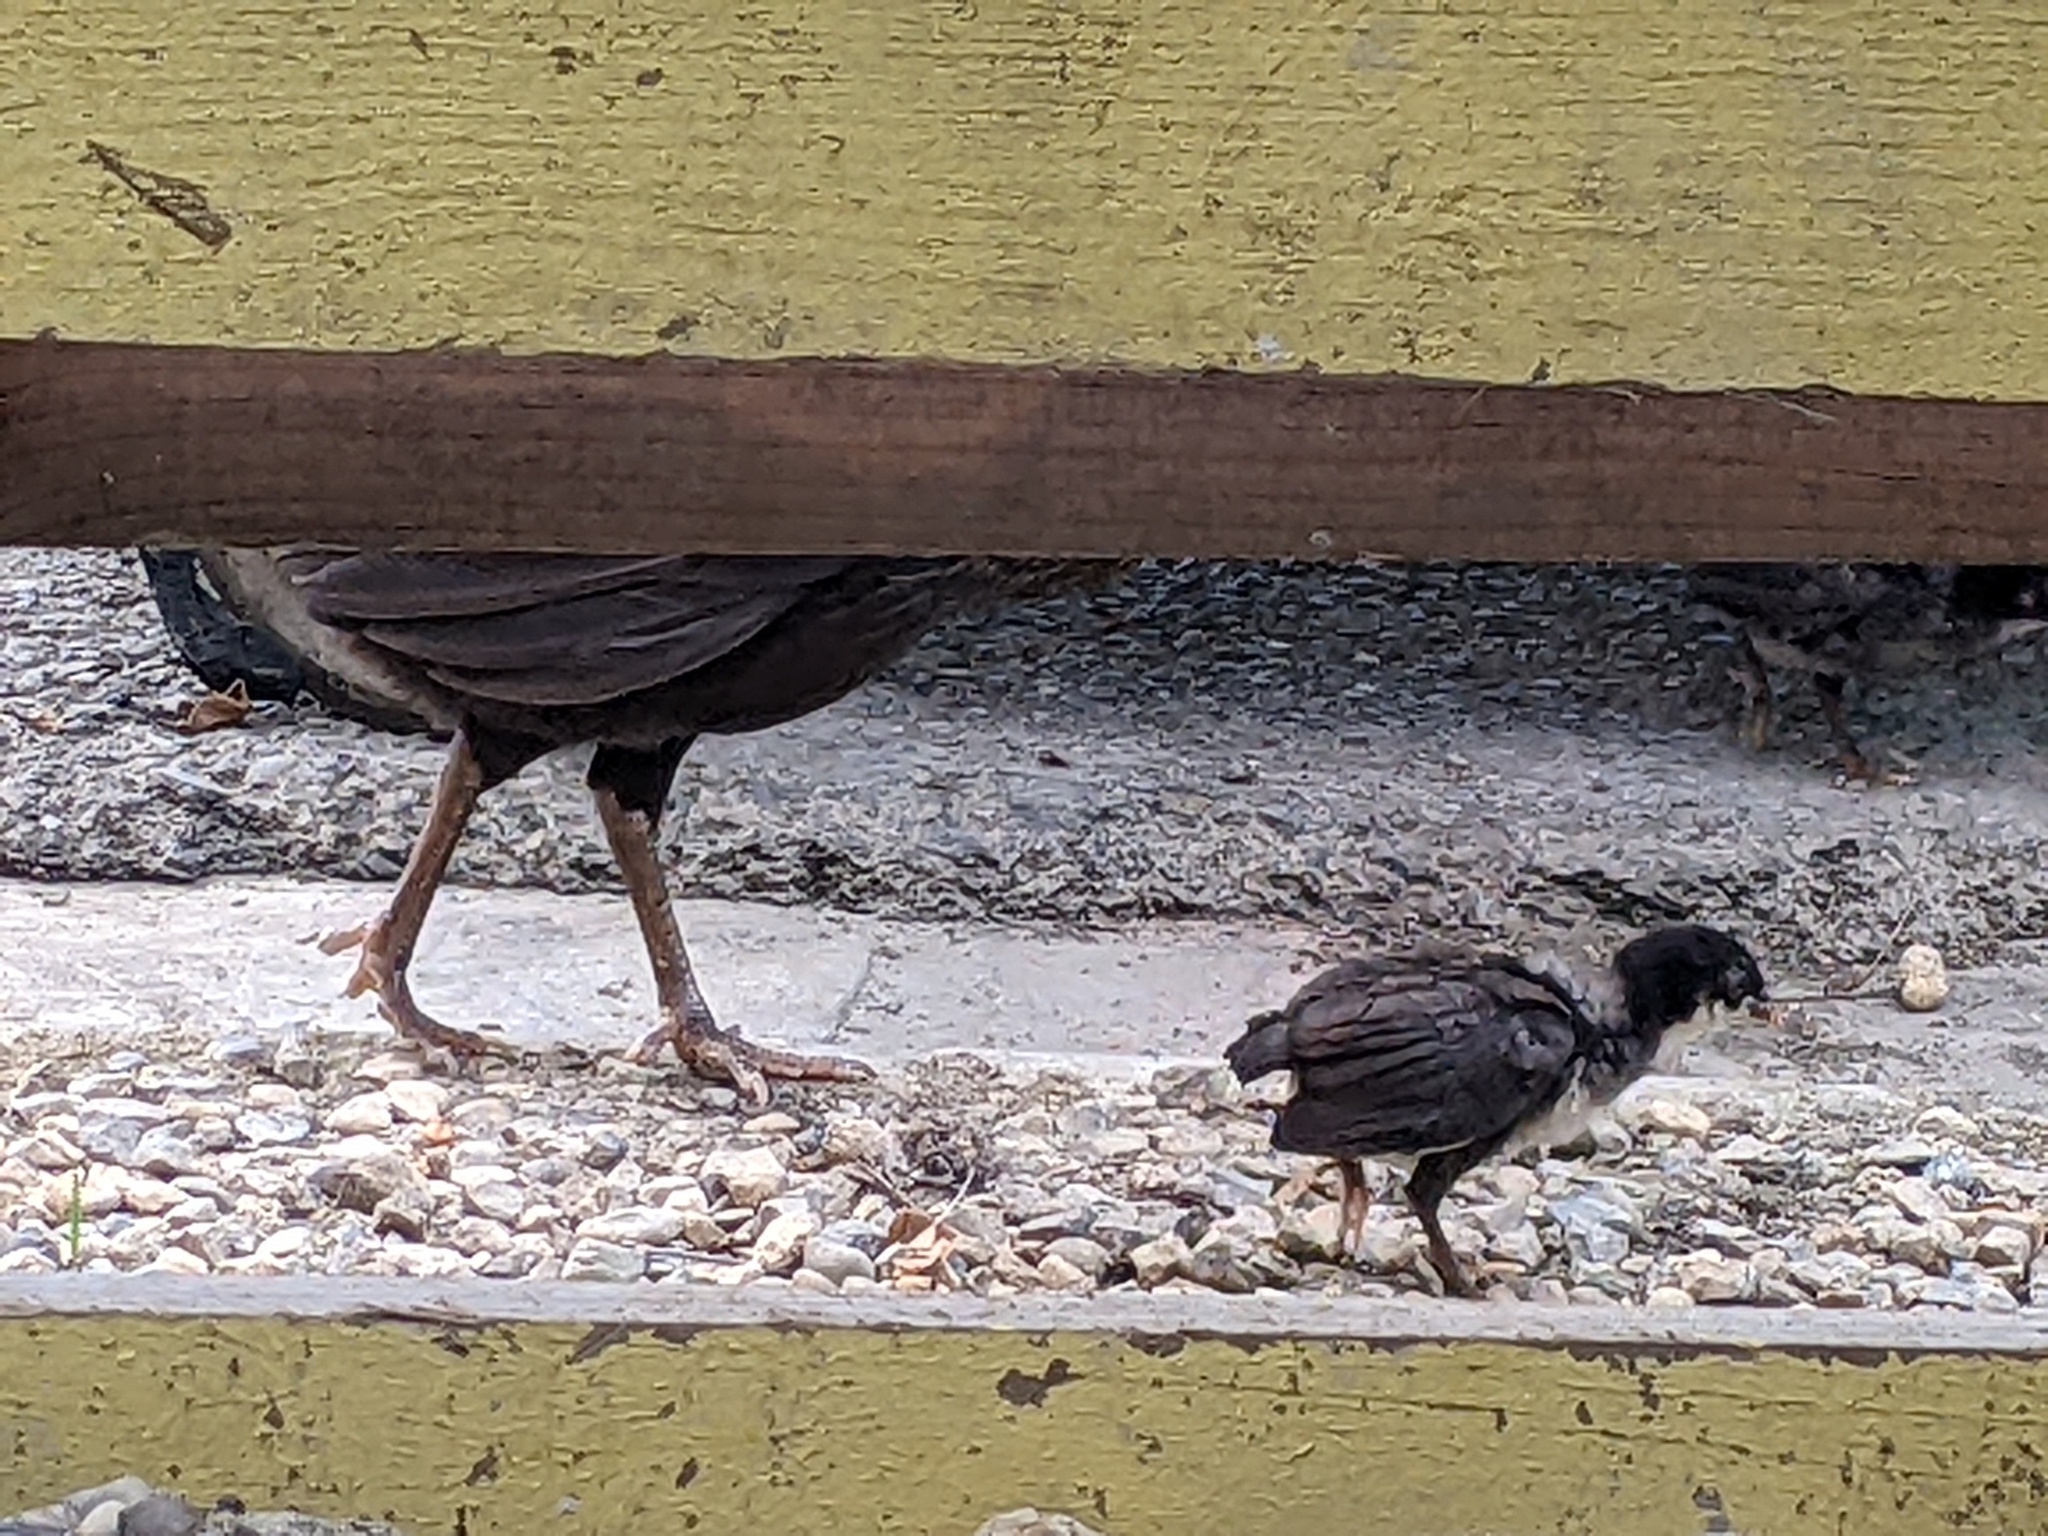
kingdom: Animalia
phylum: Chordata
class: Aves
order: Galliformes
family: Phasianidae
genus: Gallus
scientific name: Gallus gallus
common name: Red junglefowl
